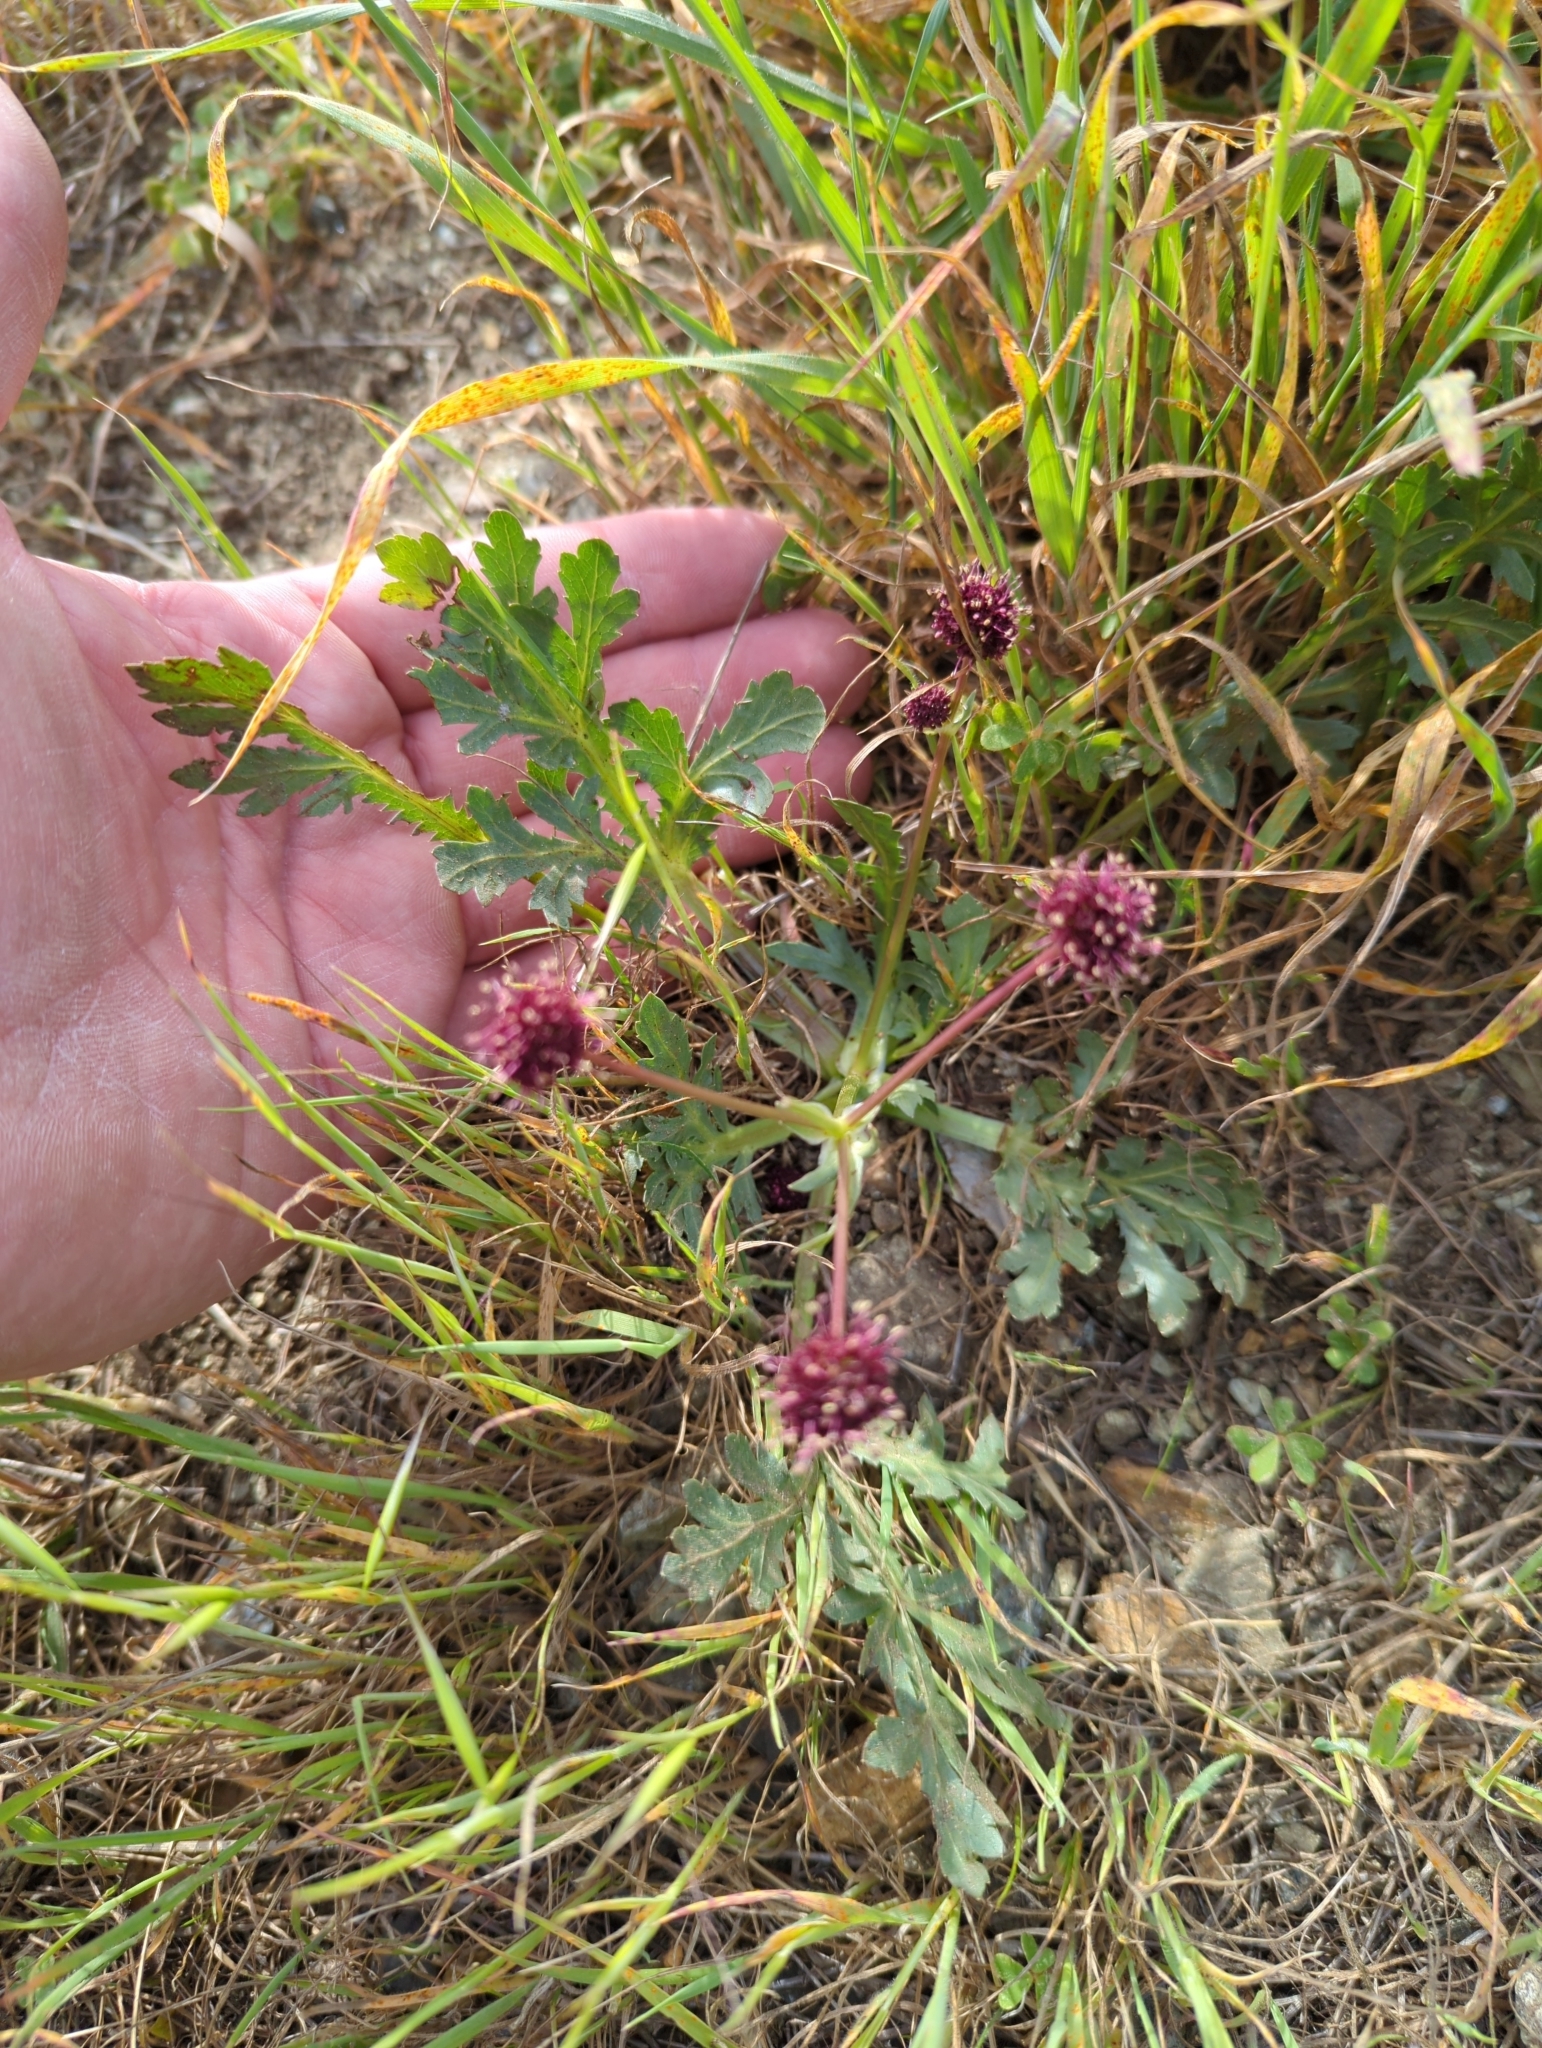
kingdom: Plantae
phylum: Tracheophyta
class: Magnoliopsida
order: Apiales
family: Apiaceae
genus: Sanicula
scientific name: Sanicula bipinnatifida
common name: Shoe-buttons
